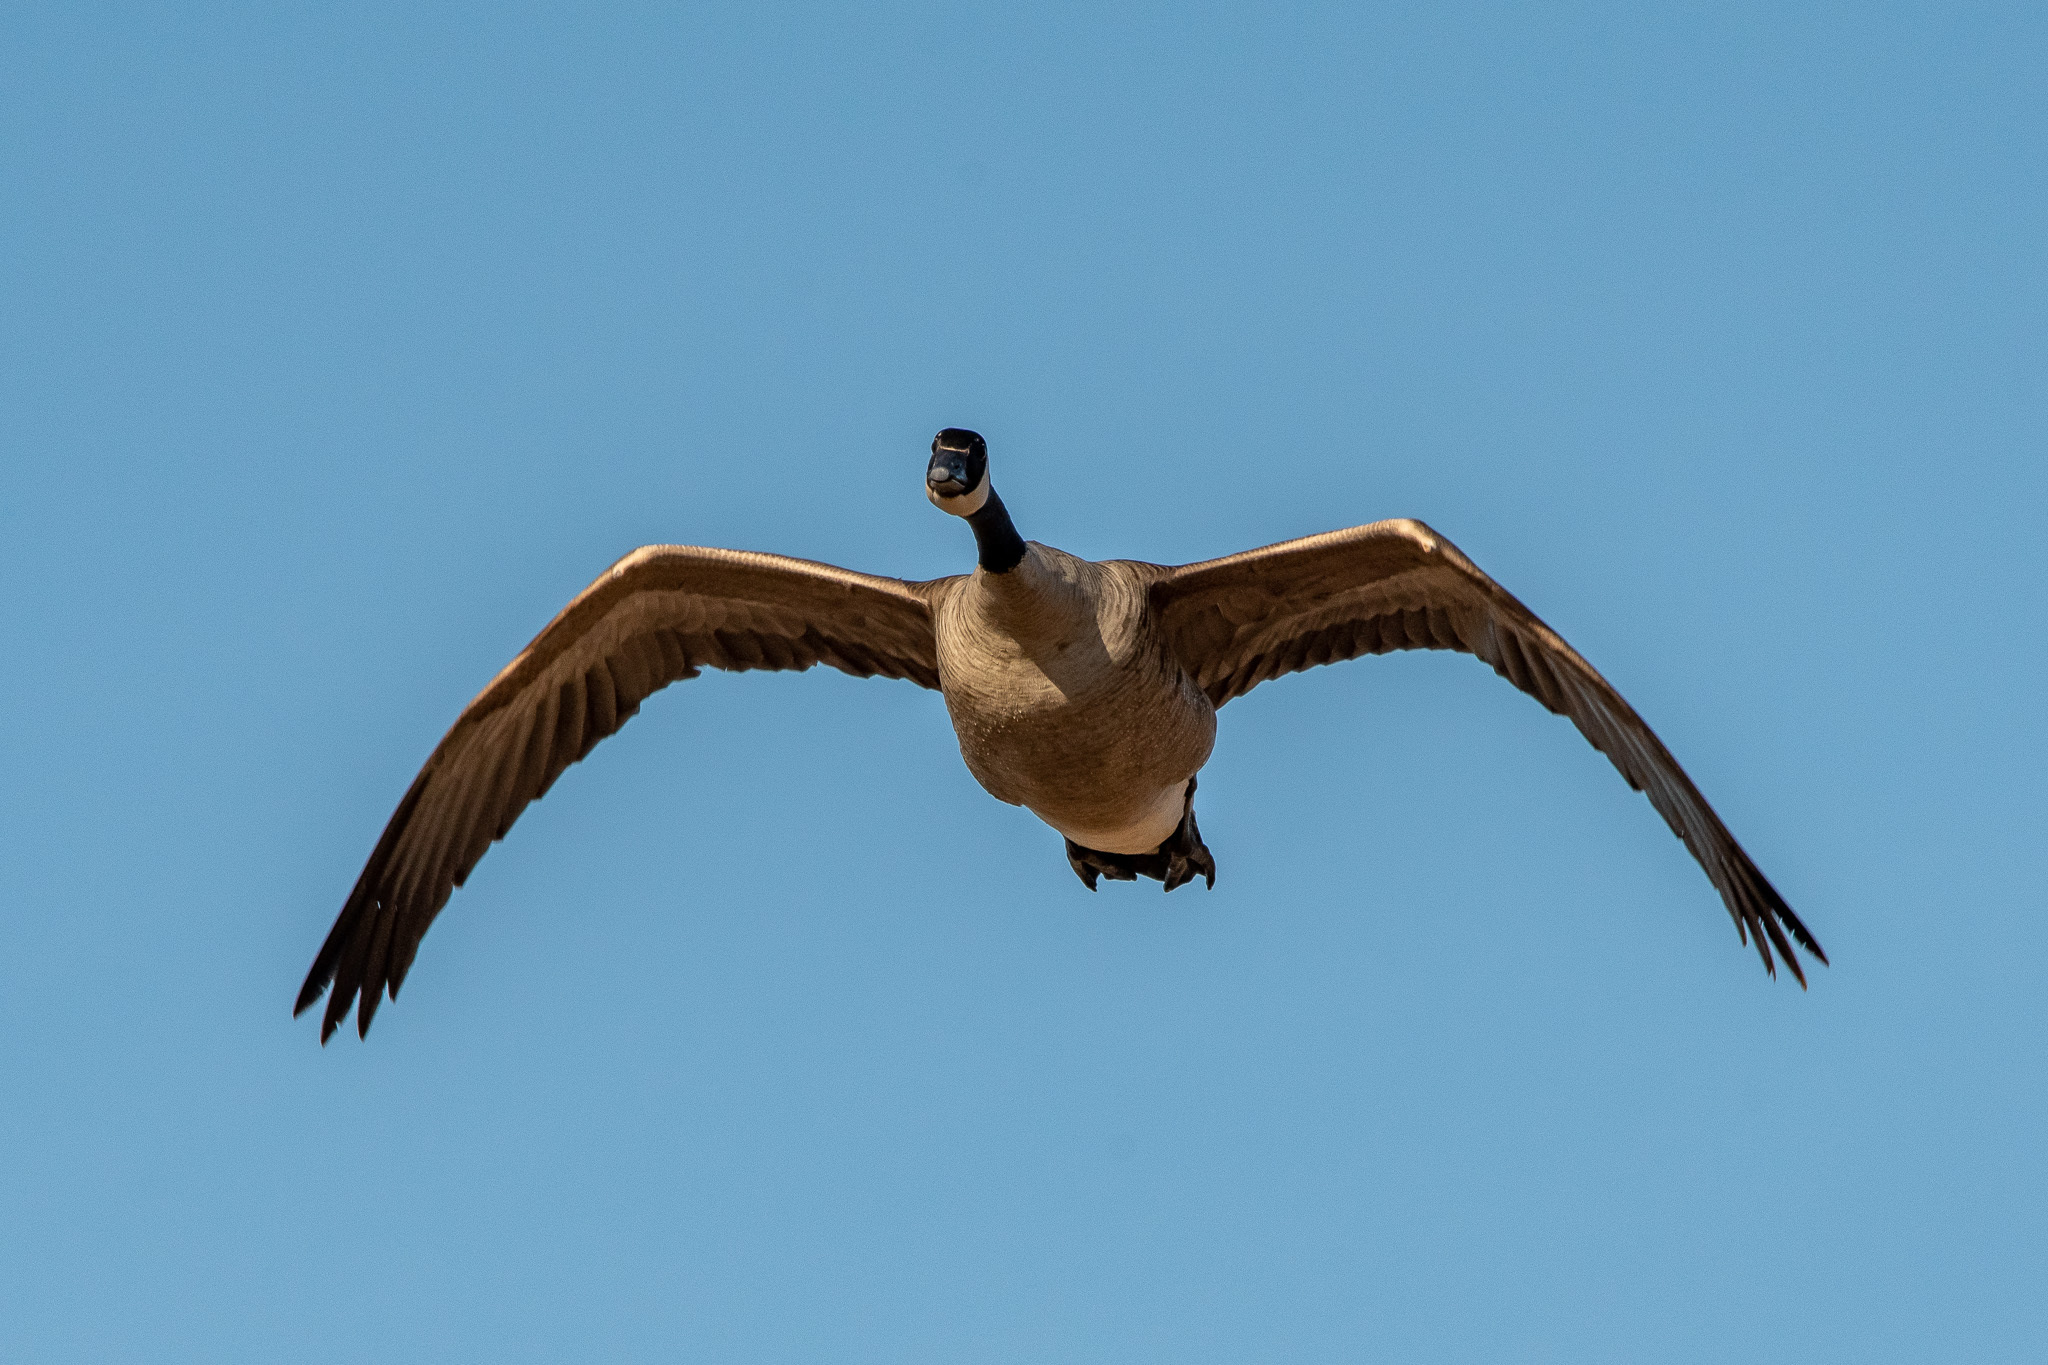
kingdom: Animalia
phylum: Chordata
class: Aves
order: Anseriformes
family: Anatidae
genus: Branta
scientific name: Branta canadensis
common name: Canada goose
